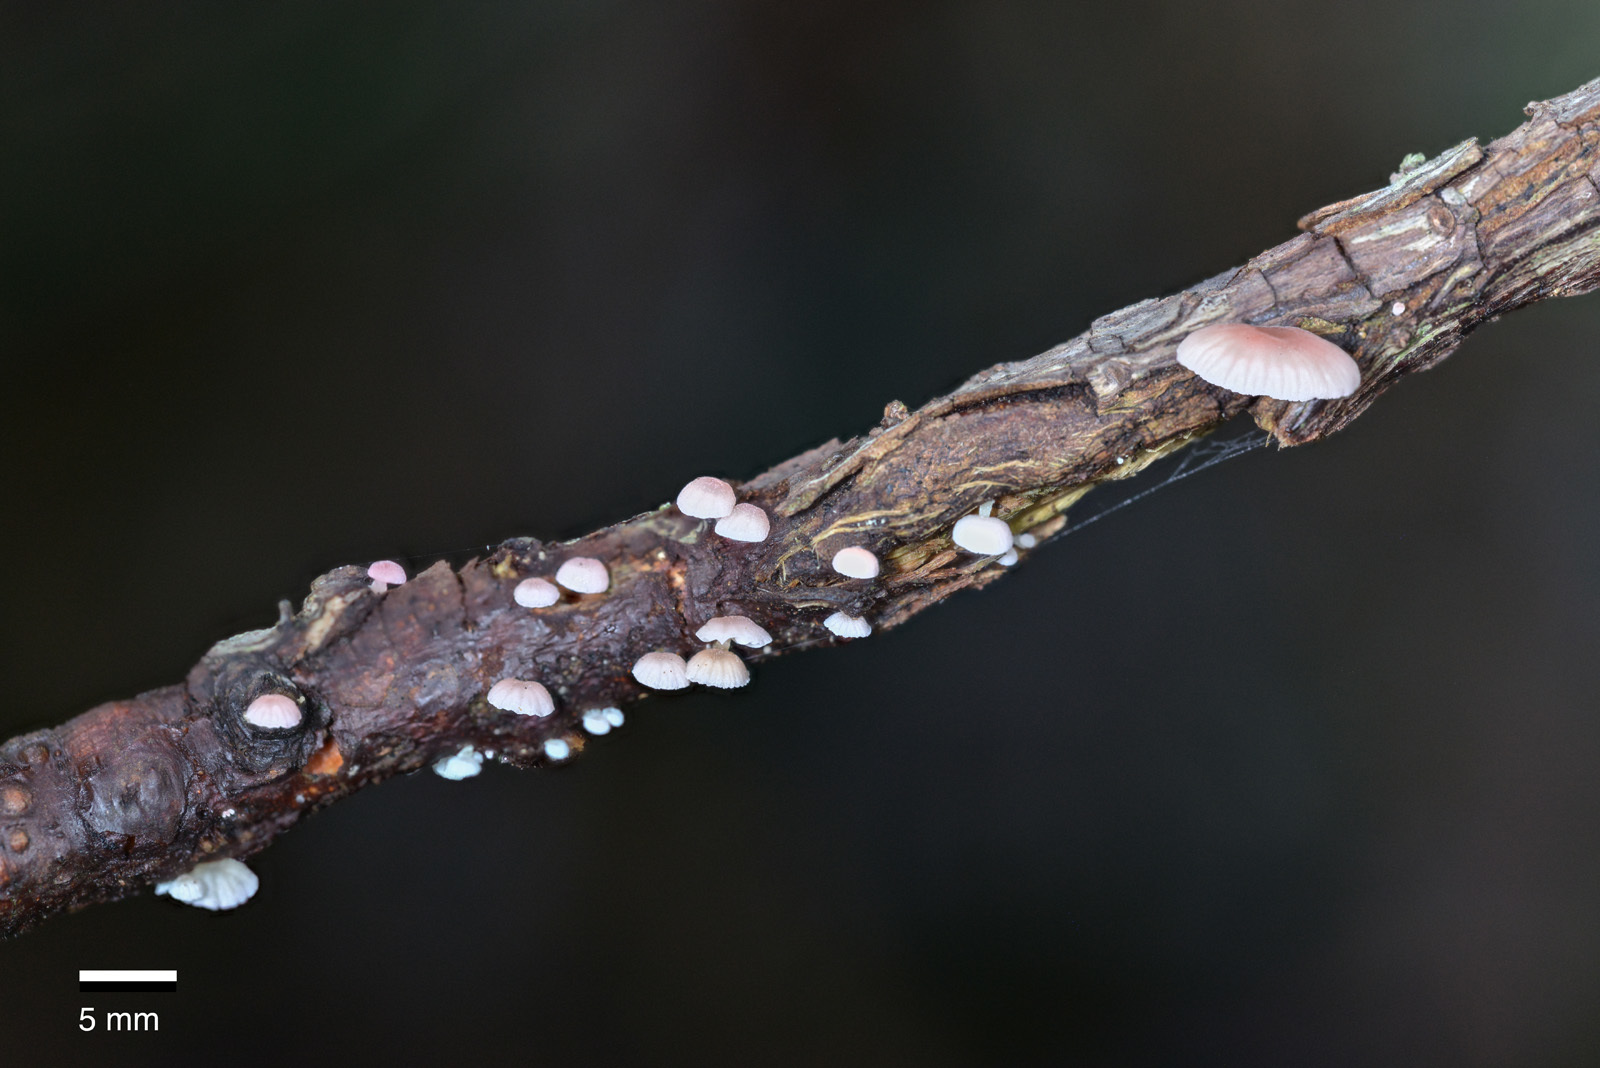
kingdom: Fungi
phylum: Basidiomycota
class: Agaricomycetes
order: Agaricales
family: Mycenaceae
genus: Mycena
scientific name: Mycena roseoflava
